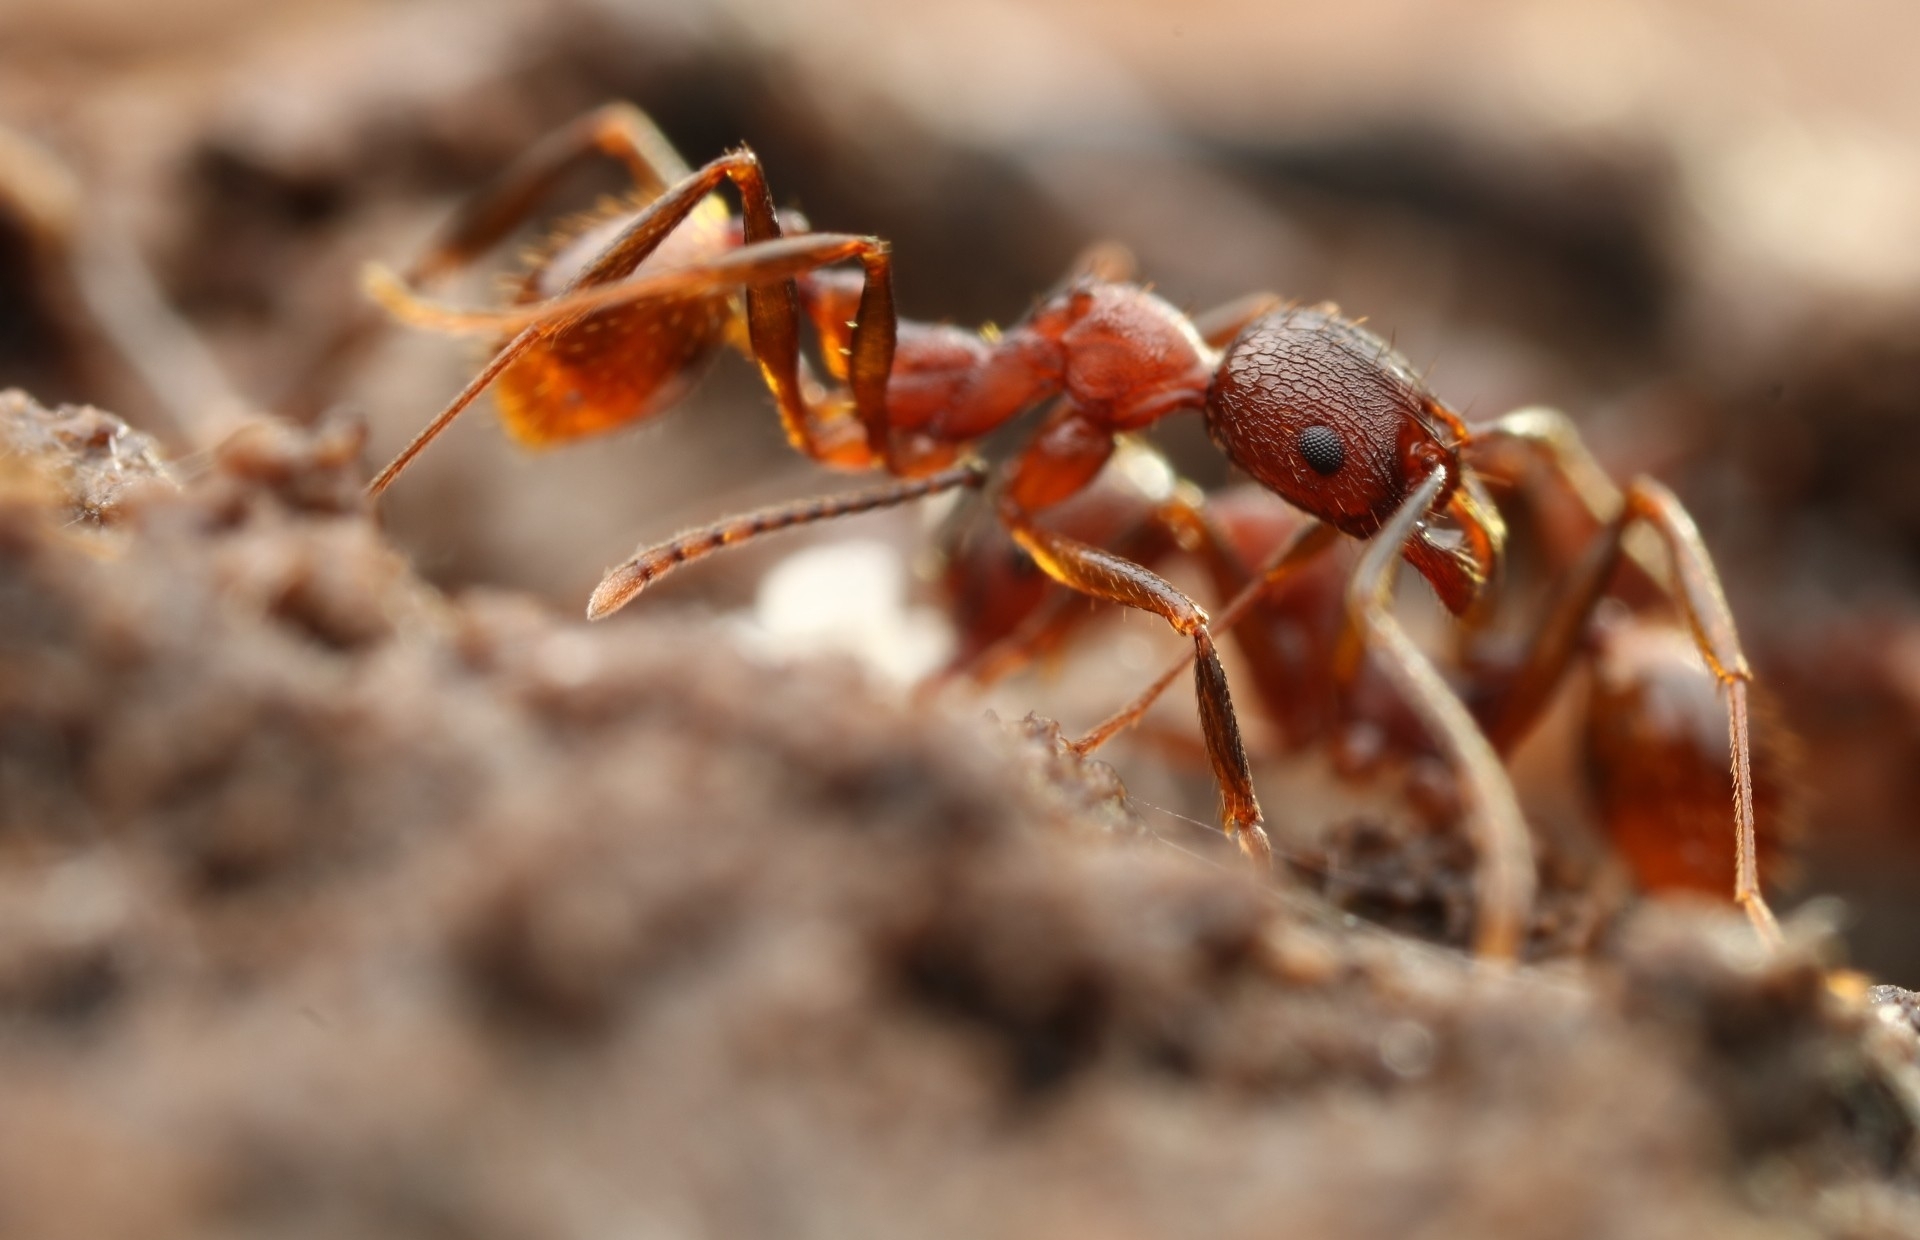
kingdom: Animalia
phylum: Arthropoda
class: Insecta
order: Hymenoptera
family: Formicidae
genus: Aphaenogaster
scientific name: Aphaenogaster fulva
